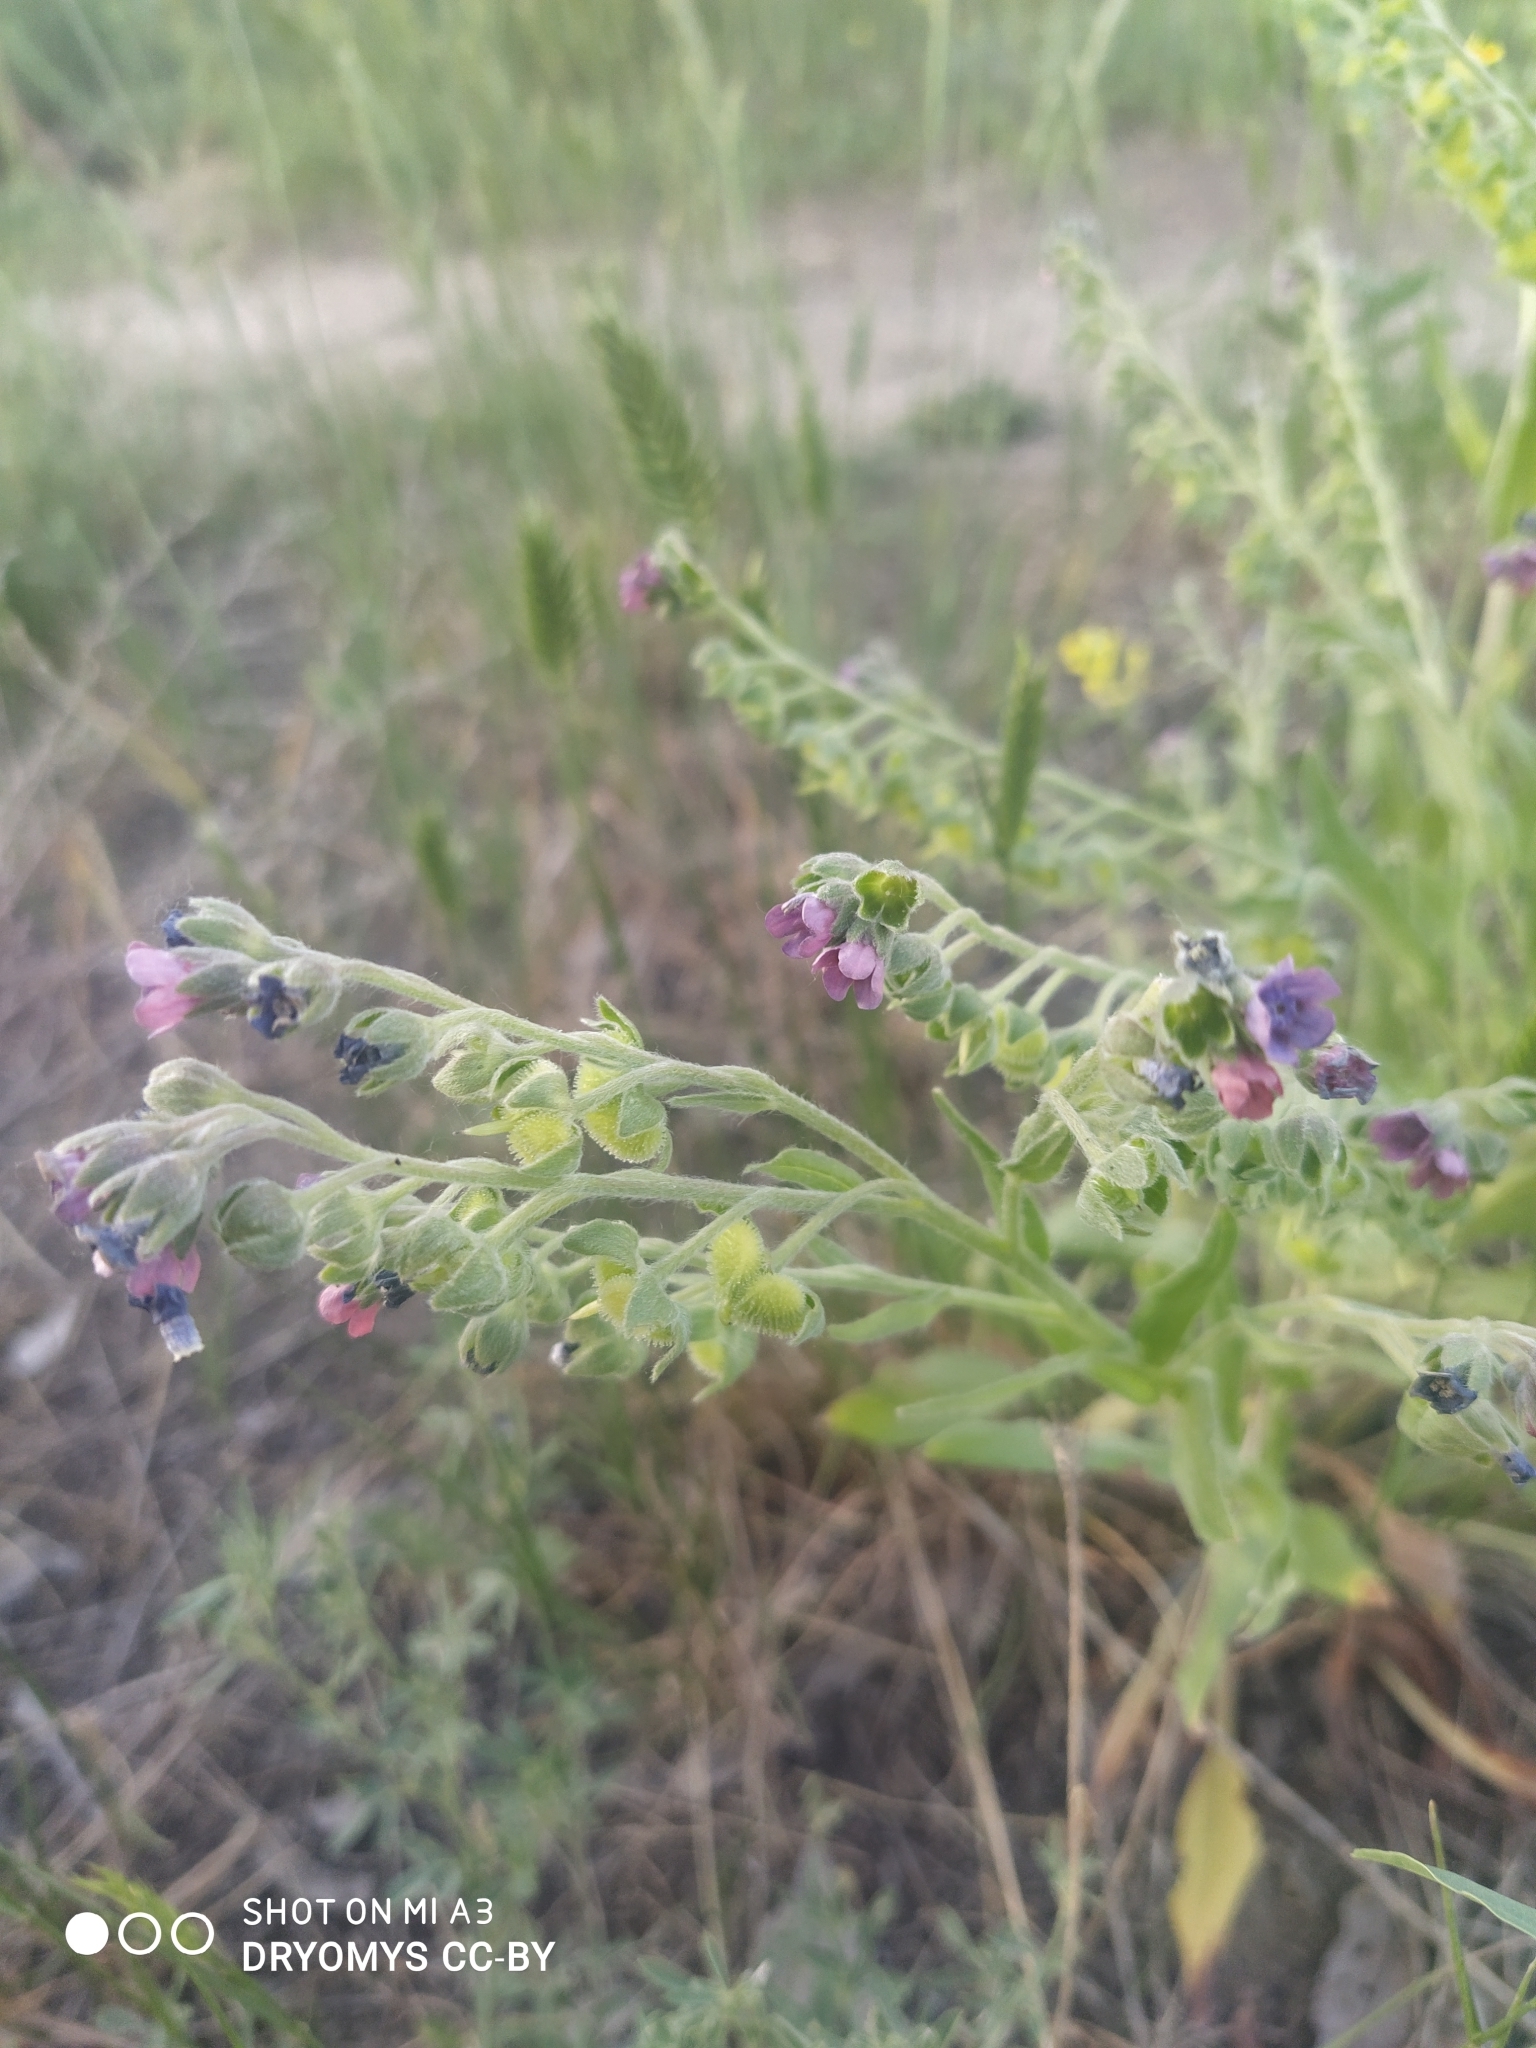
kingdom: Plantae
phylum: Tracheophyta
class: Magnoliopsida
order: Boraginales
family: Boraginaceae
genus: Cynoglossum
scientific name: Cynoglossum officinale
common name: Hound's-tongue
